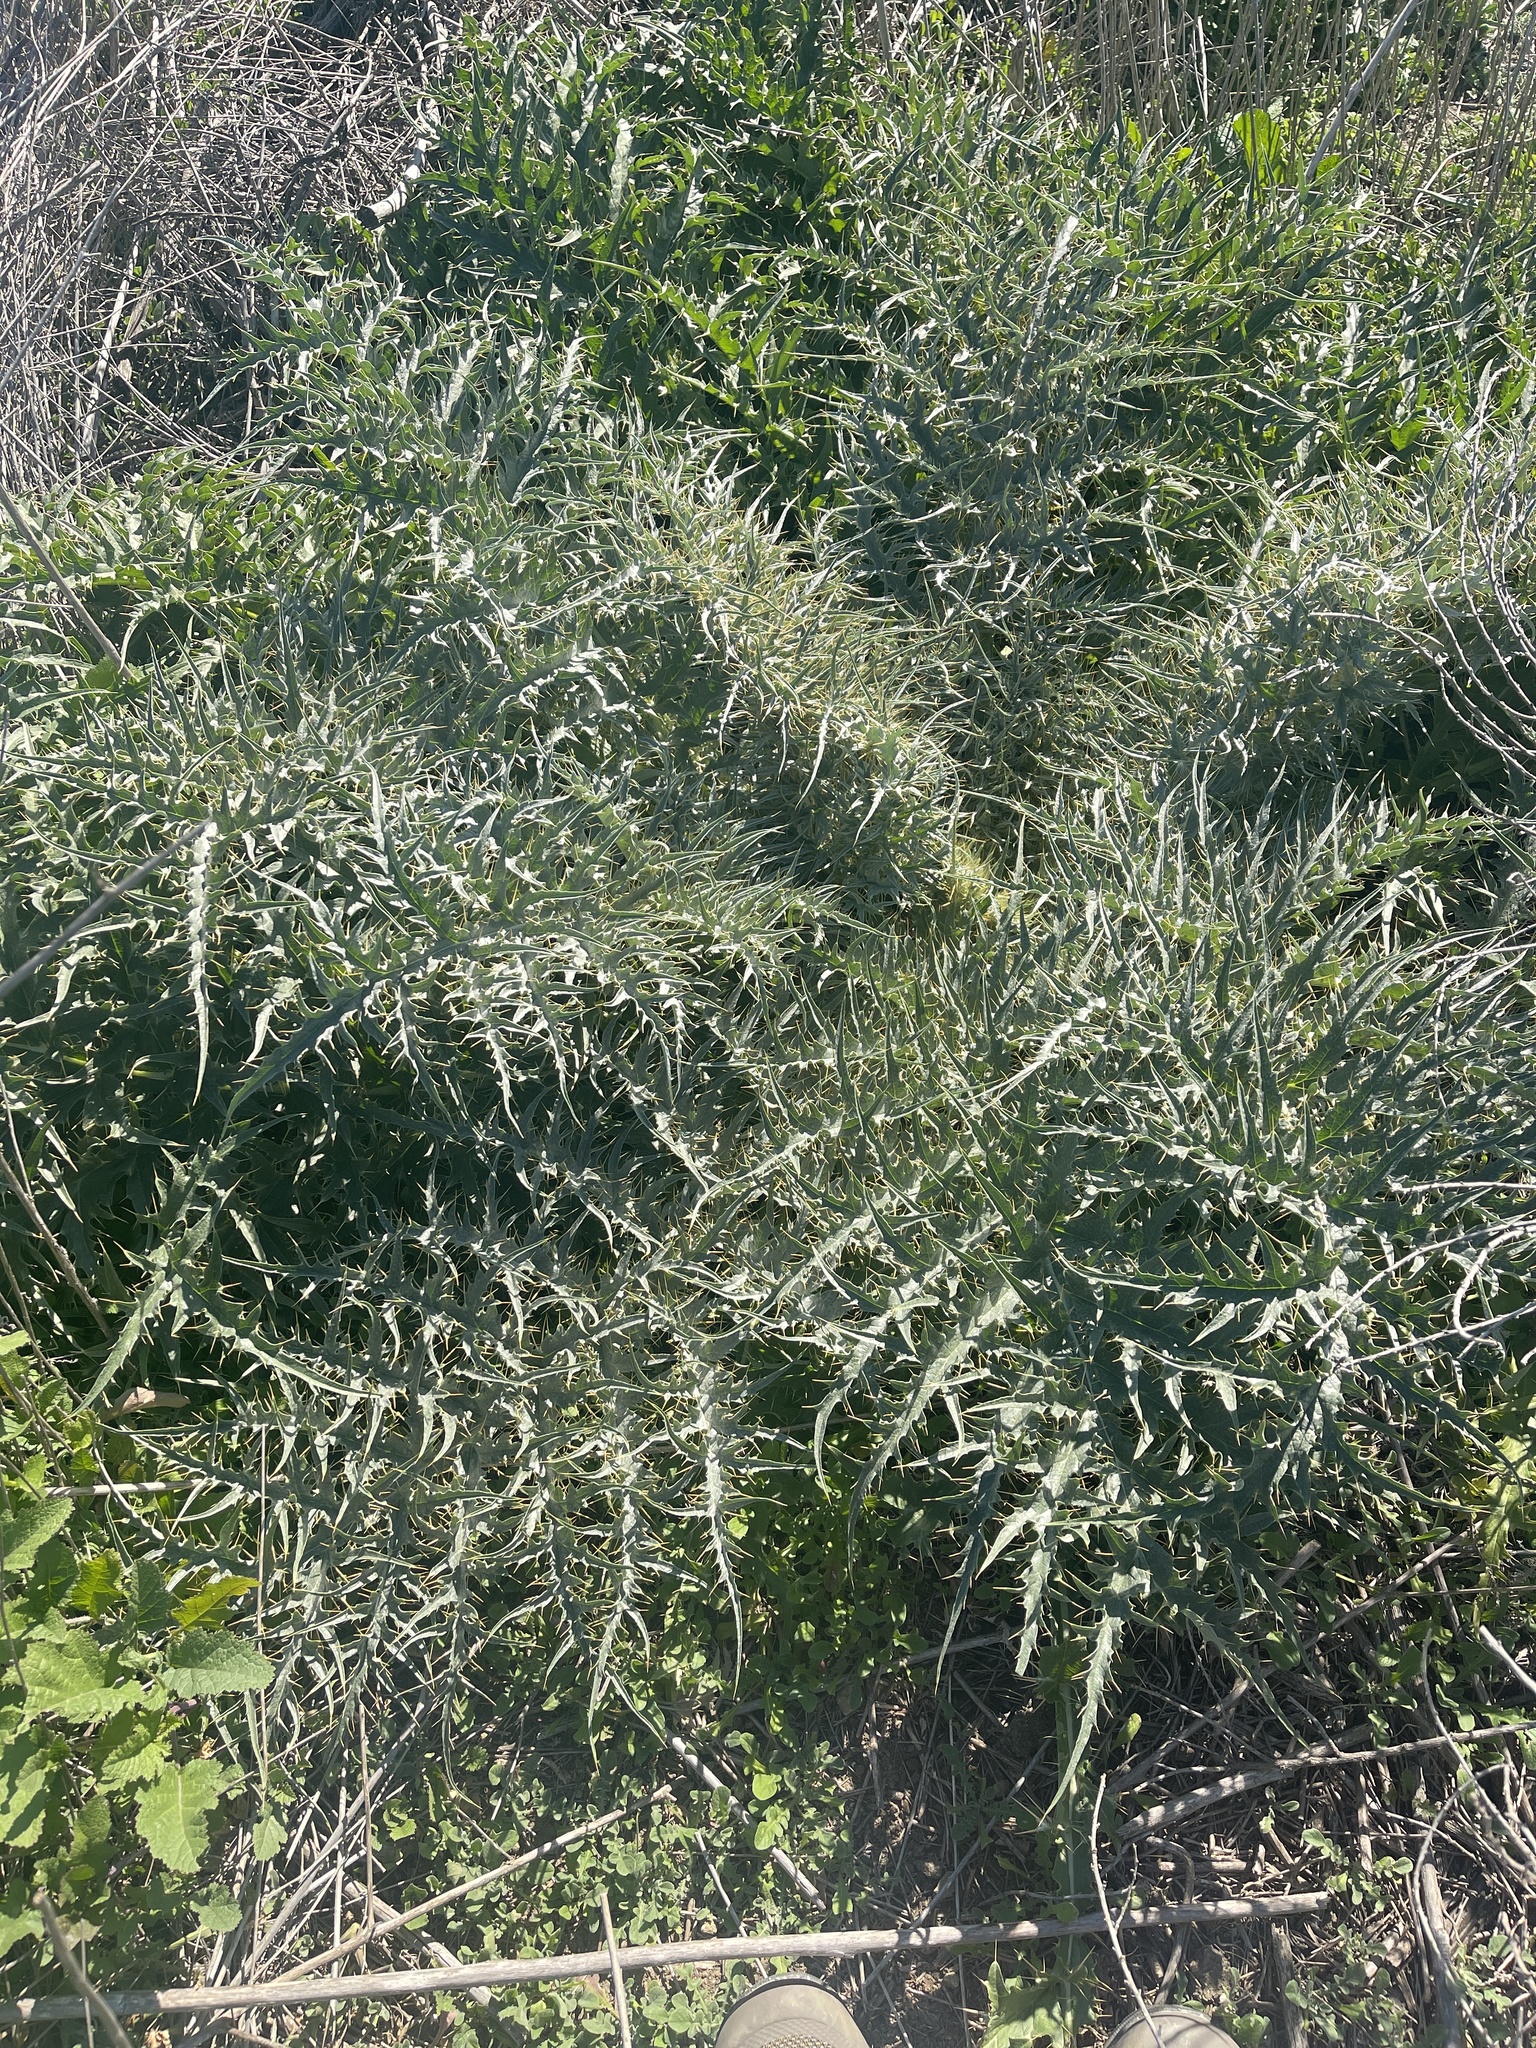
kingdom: Plantae
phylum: Tracheophyta
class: Magnoliopsida
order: Asterales
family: Asteraceae
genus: Cynara
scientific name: Cynara cardunculus
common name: Globe artichoke
